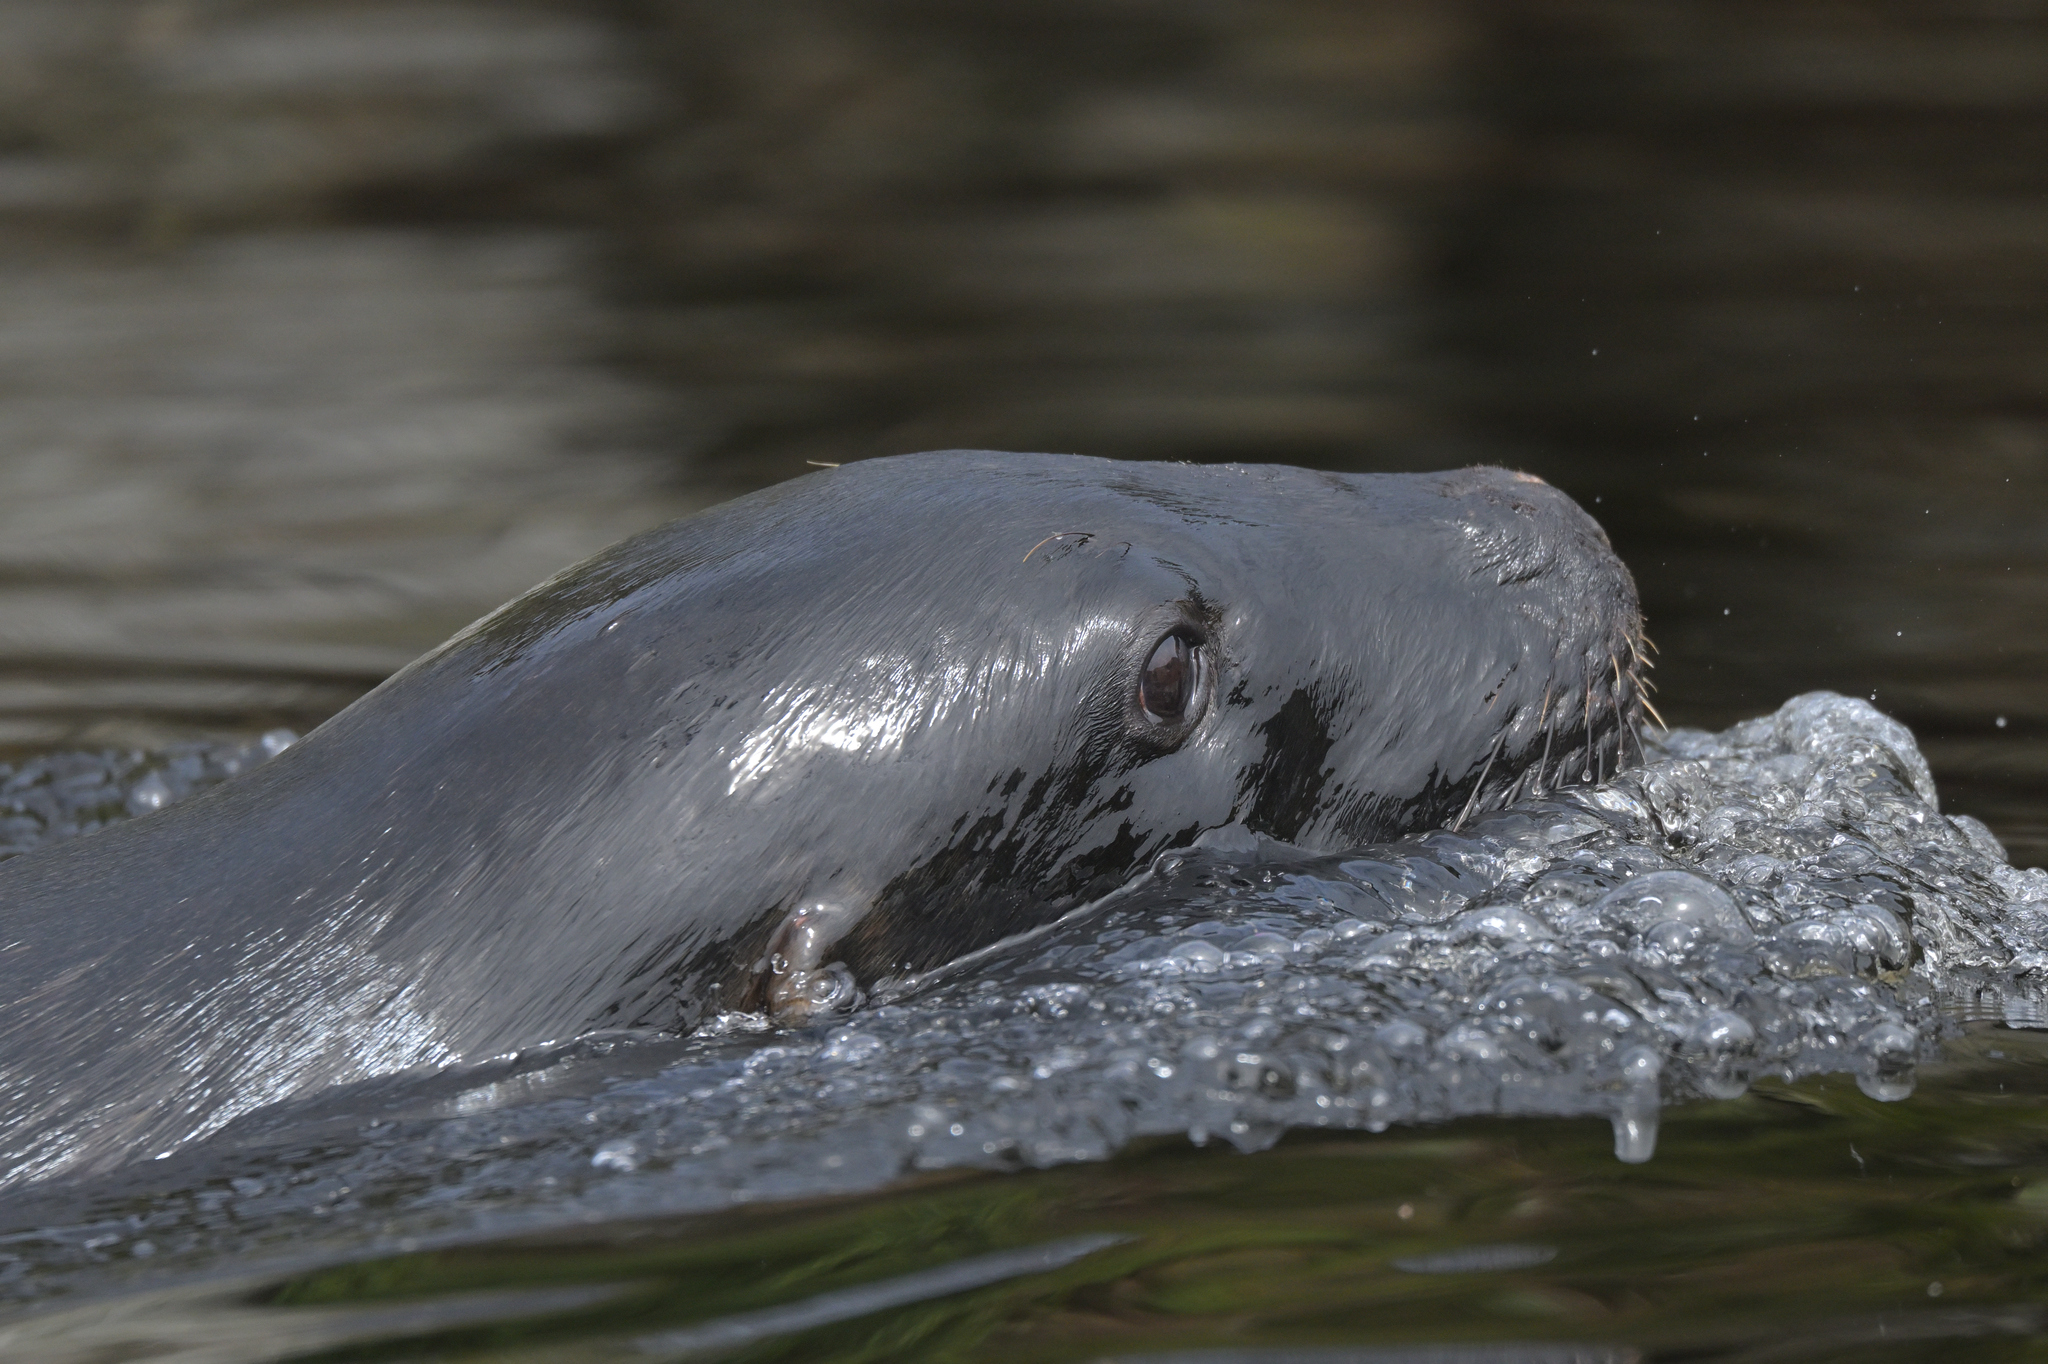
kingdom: Animalia
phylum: Chordata
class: Mammalia
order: Carnivora
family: Otariidae
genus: Phocarctos
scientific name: Phocarctos hookeri
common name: New zealand sea lion
